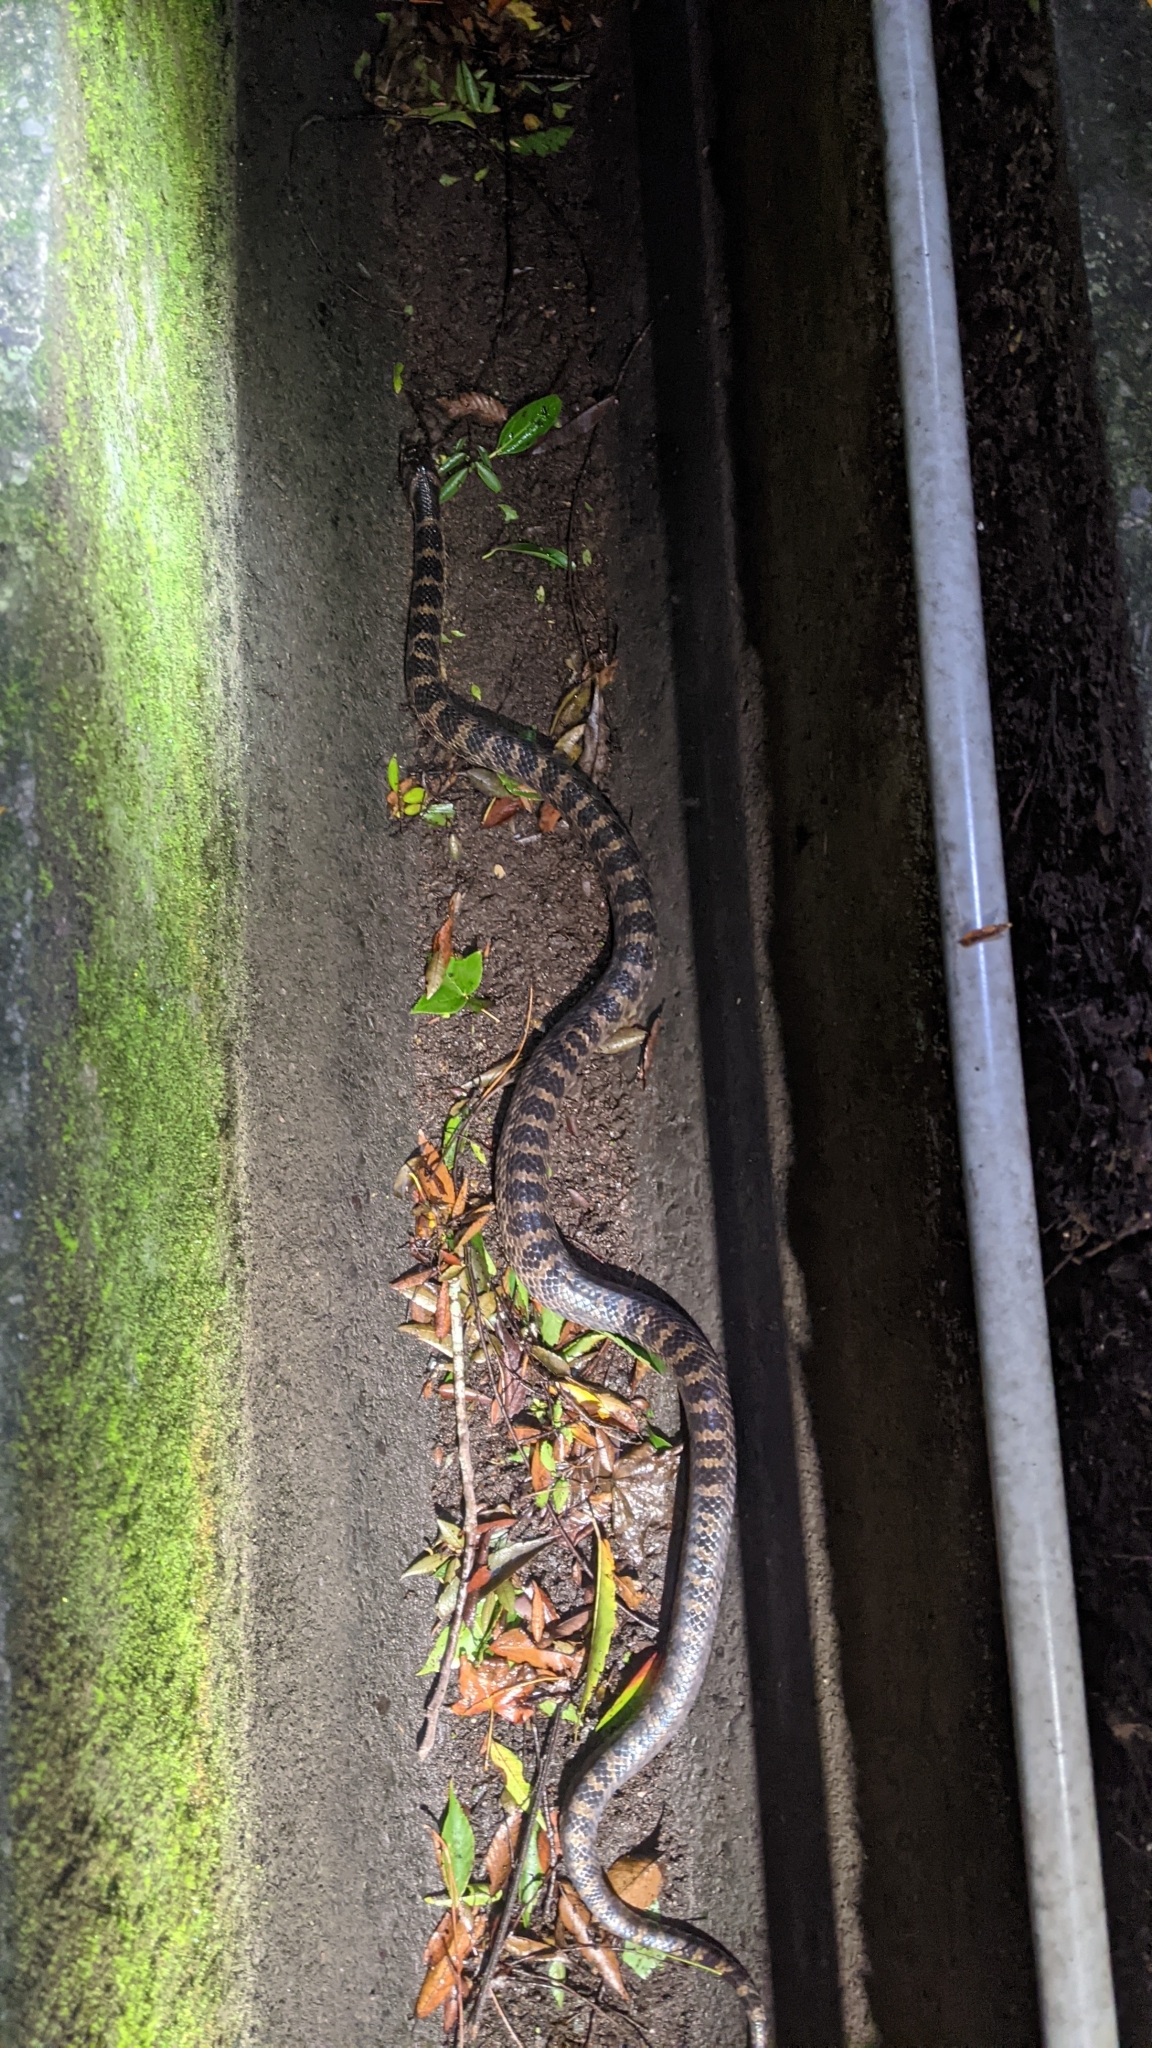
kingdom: Animalia
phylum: Chordata
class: Squamata
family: Colubridae
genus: Lycodon
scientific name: Lycodon rufozonatus
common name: Red-banded snake
